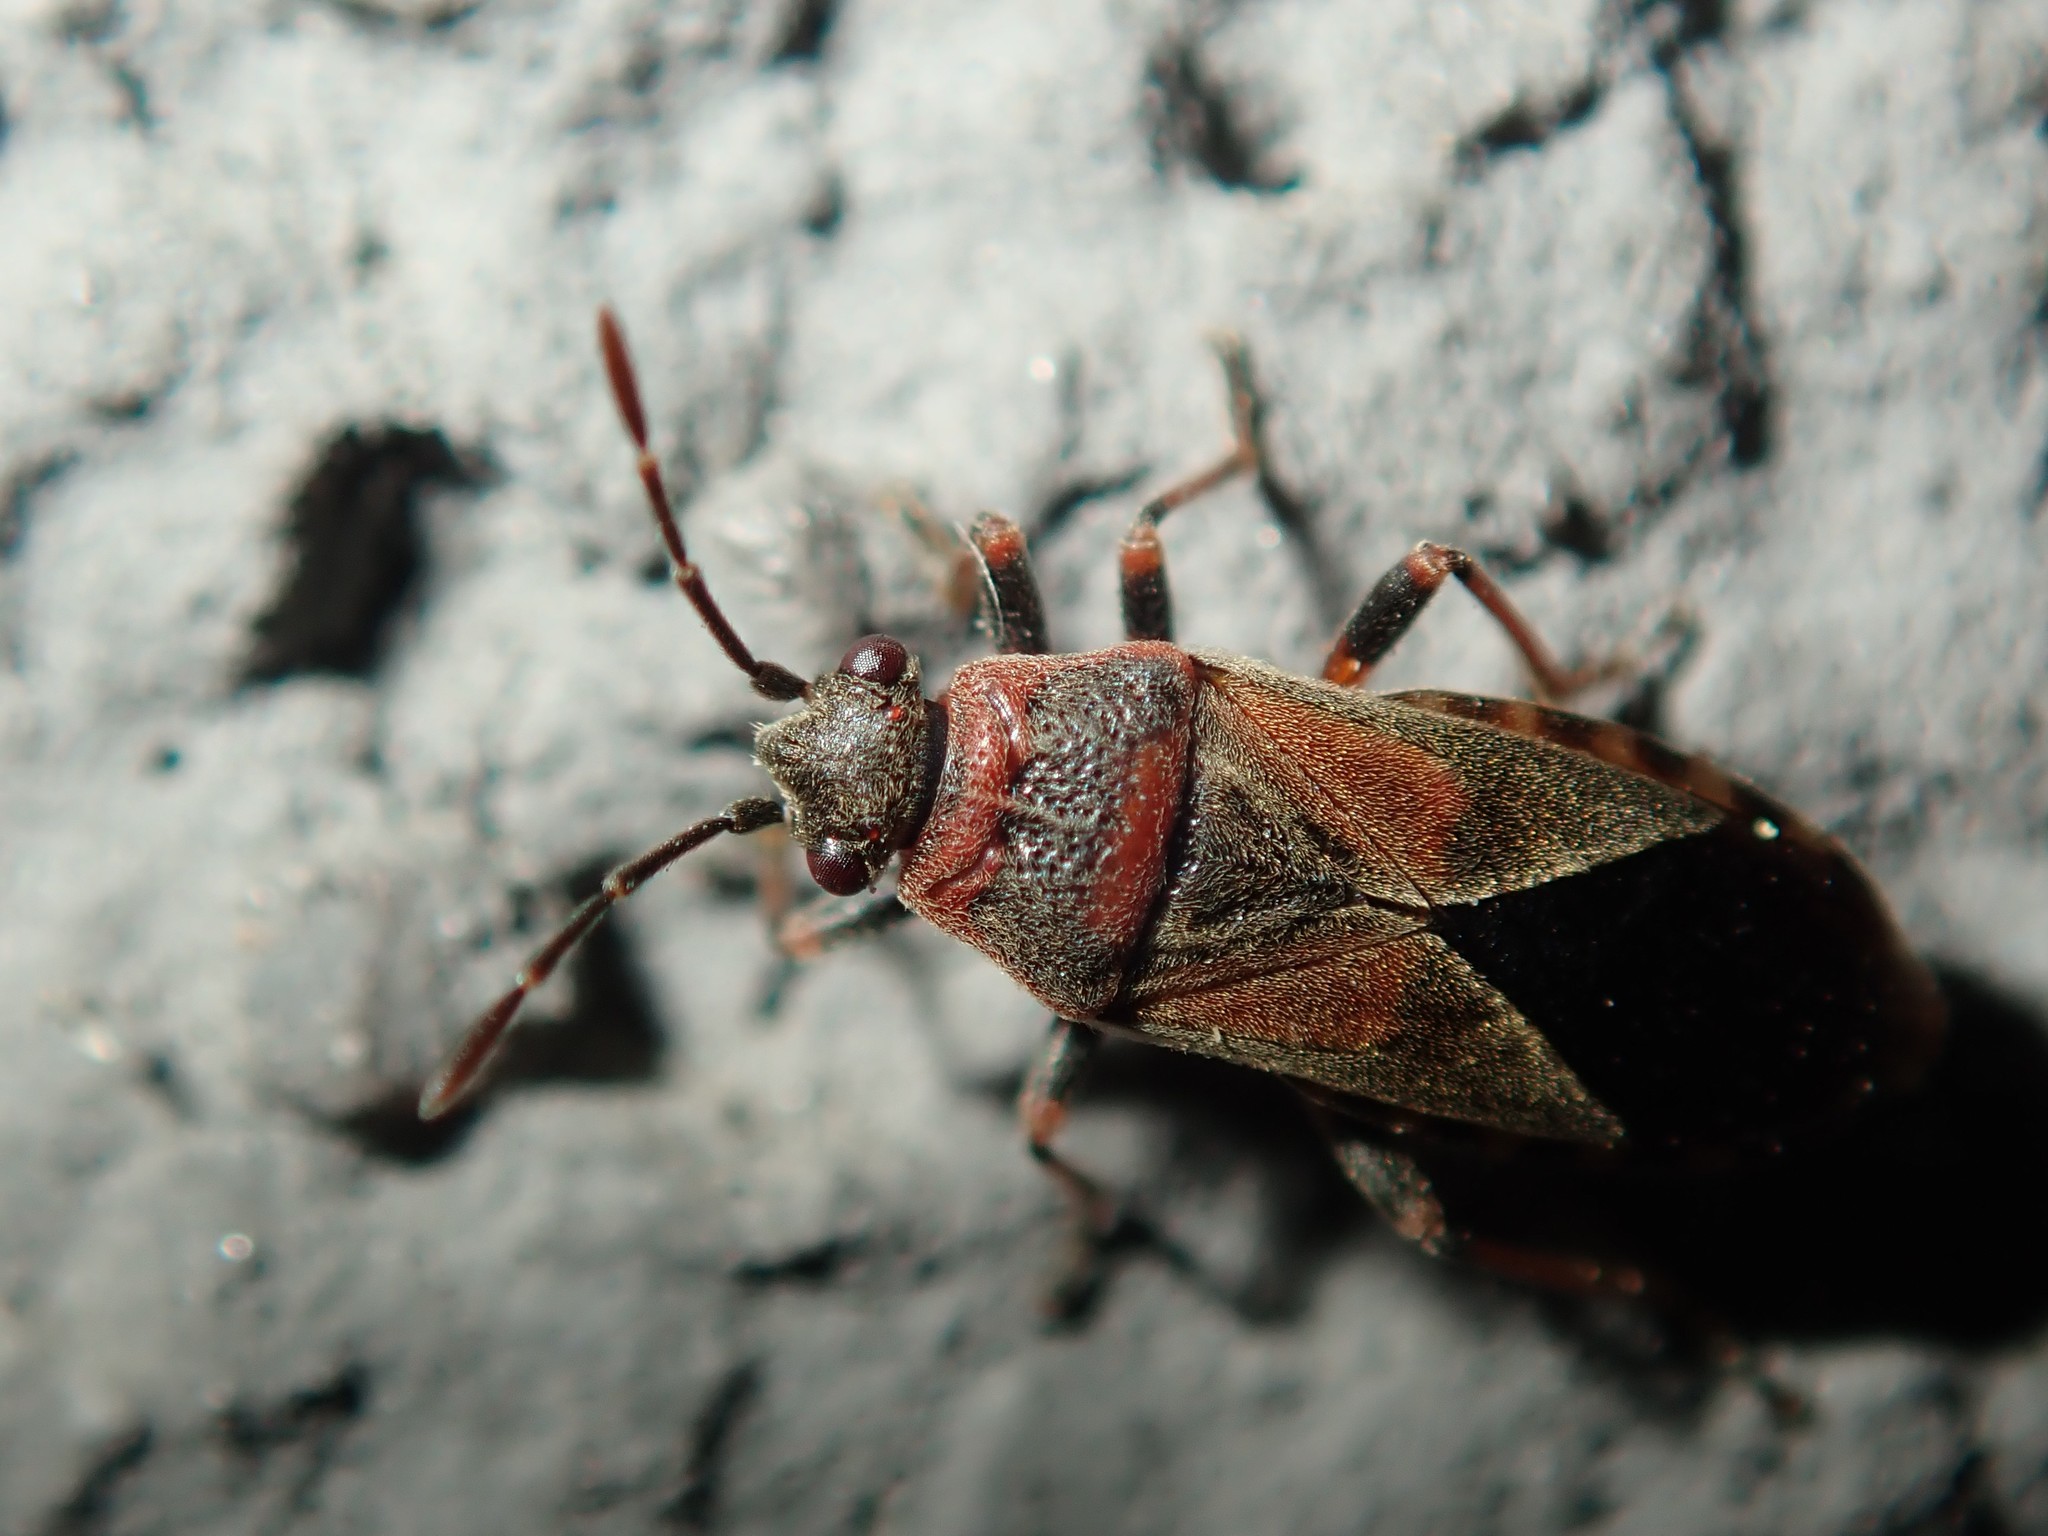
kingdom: Animalia
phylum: Arthropoda
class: Insecta
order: Hemiptera
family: Lygaeidae
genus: Arocatus
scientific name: Arocatus melanocephalus
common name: Lygaeid bug
